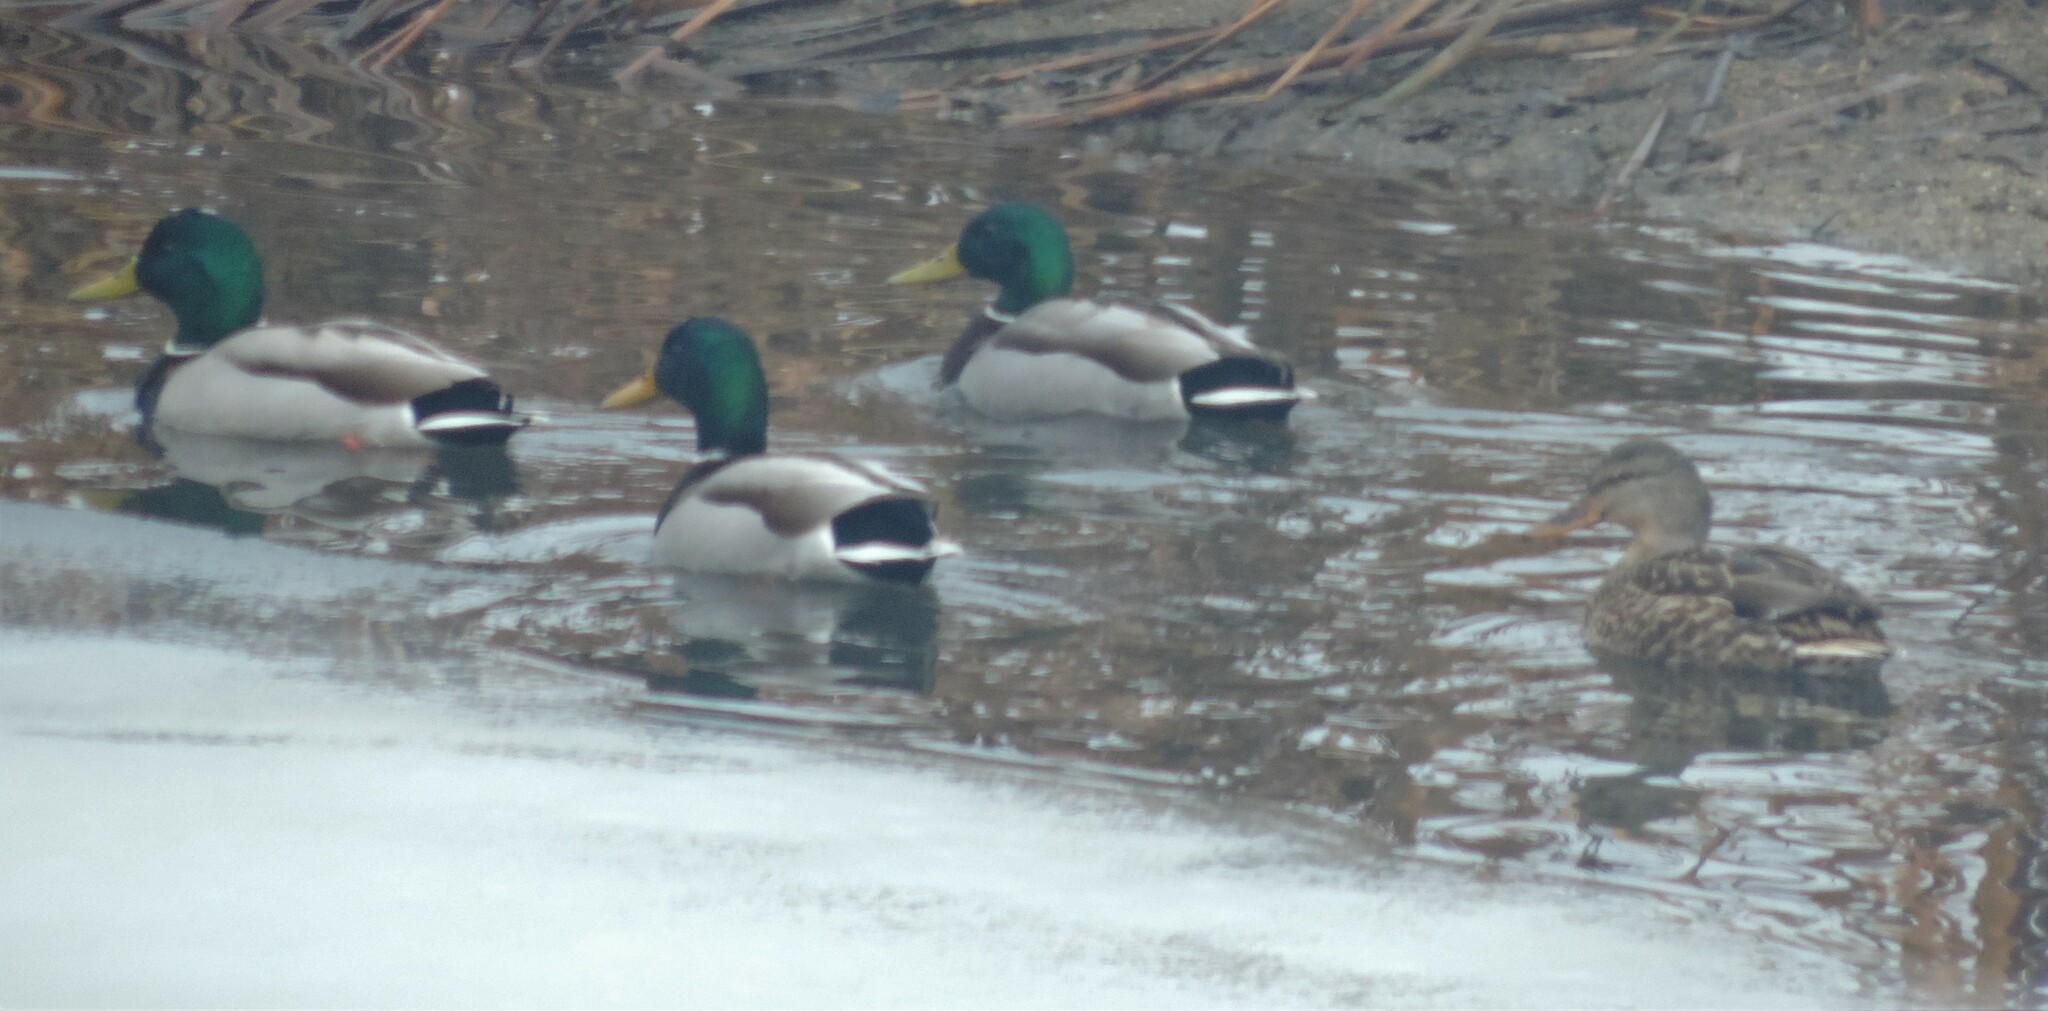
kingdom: Animalia
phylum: Chordata
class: Aves
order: Anseriformes
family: Anatidae
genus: Anas
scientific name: Anas platyrhynchos
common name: Mallard
